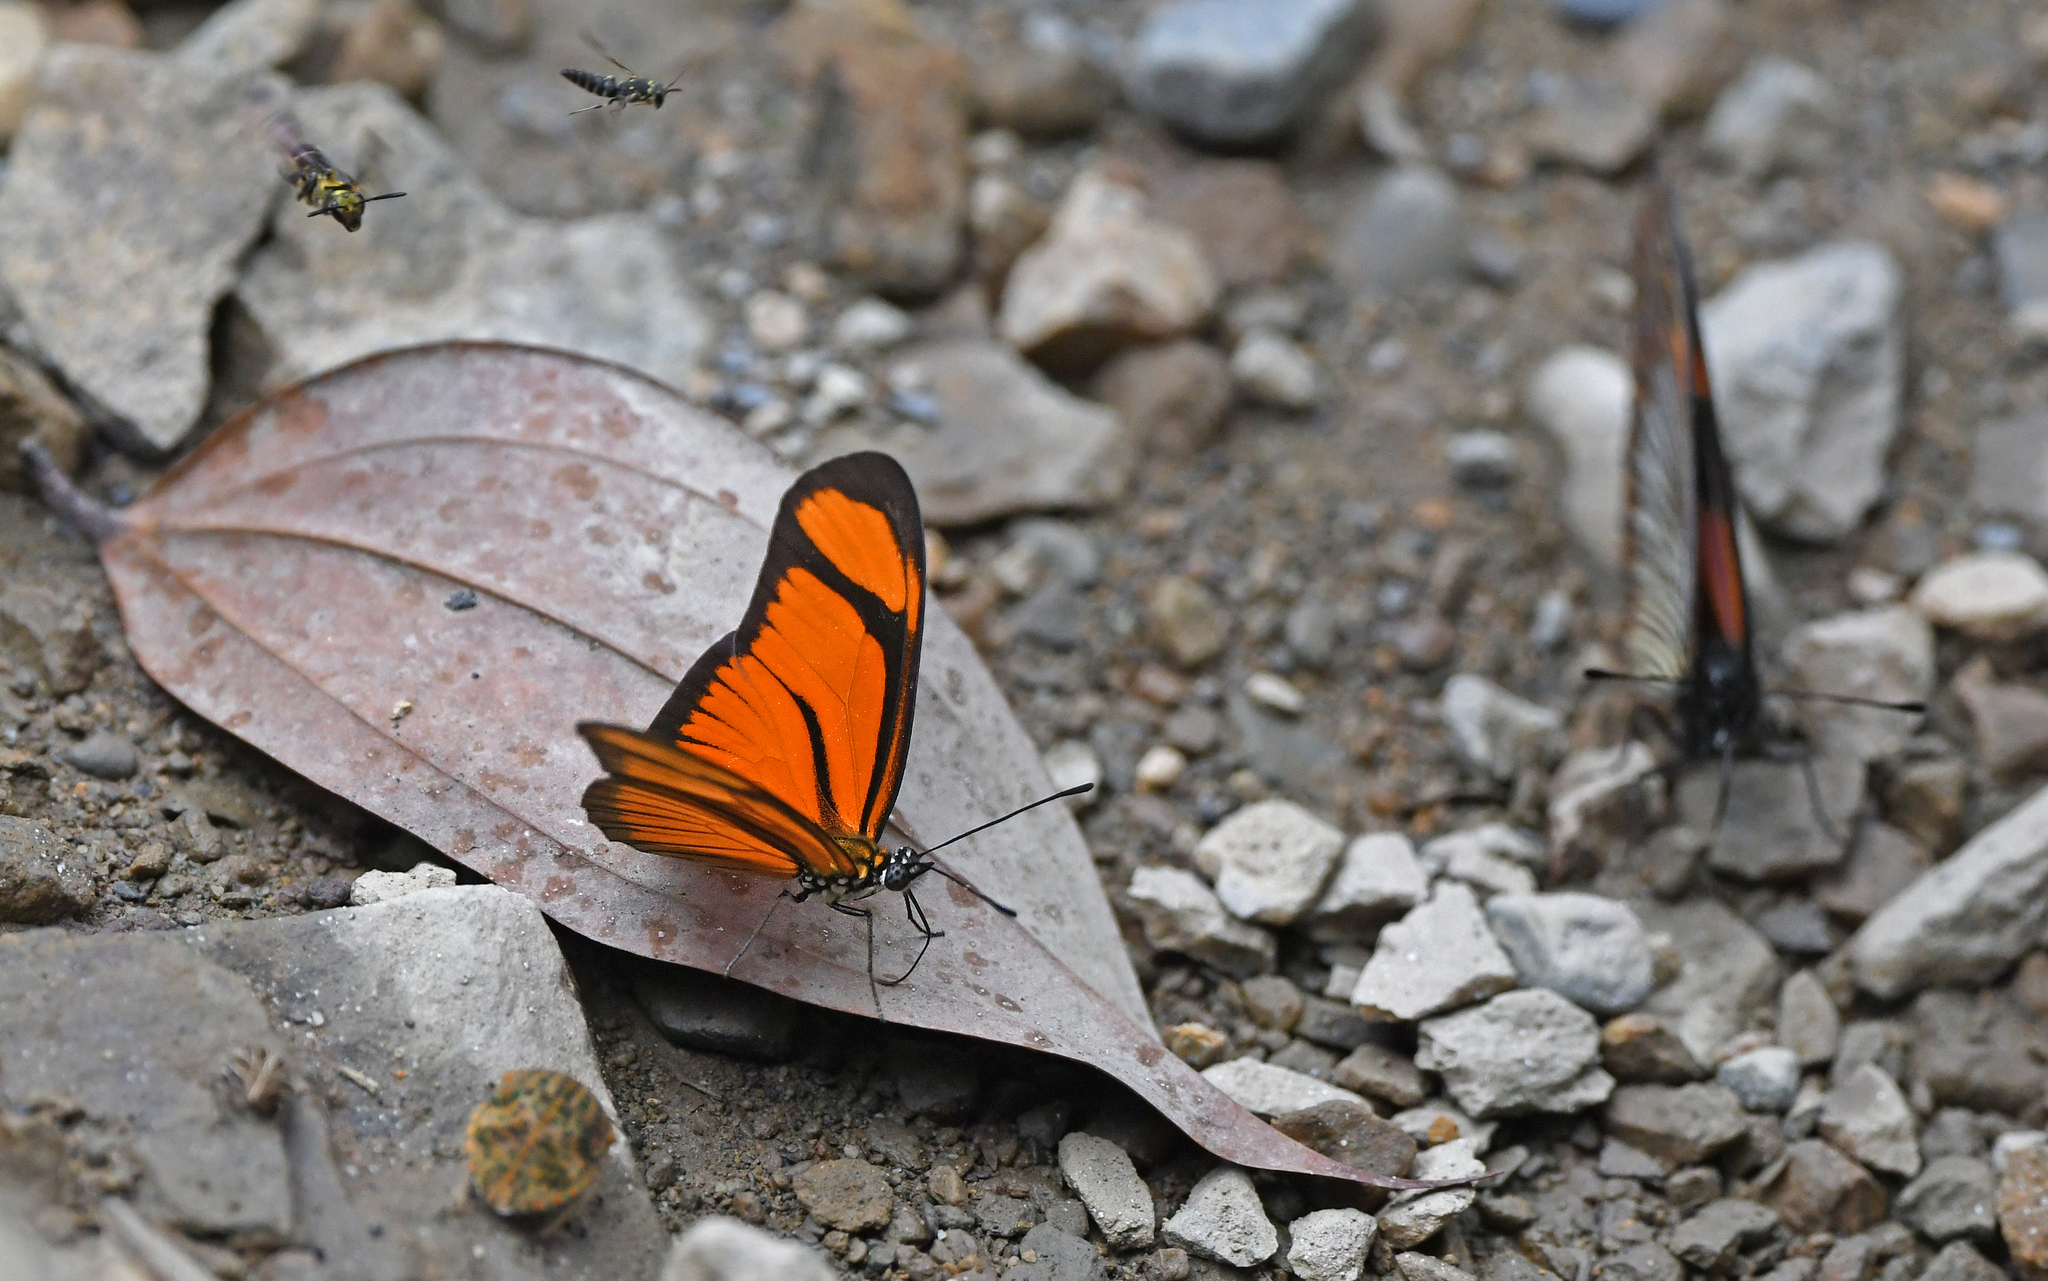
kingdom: Animalia
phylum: Arthropoda
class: Insecta
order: Lepidoptera
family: Nymphalidae
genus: Heliconius
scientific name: Heliconius aliphera
